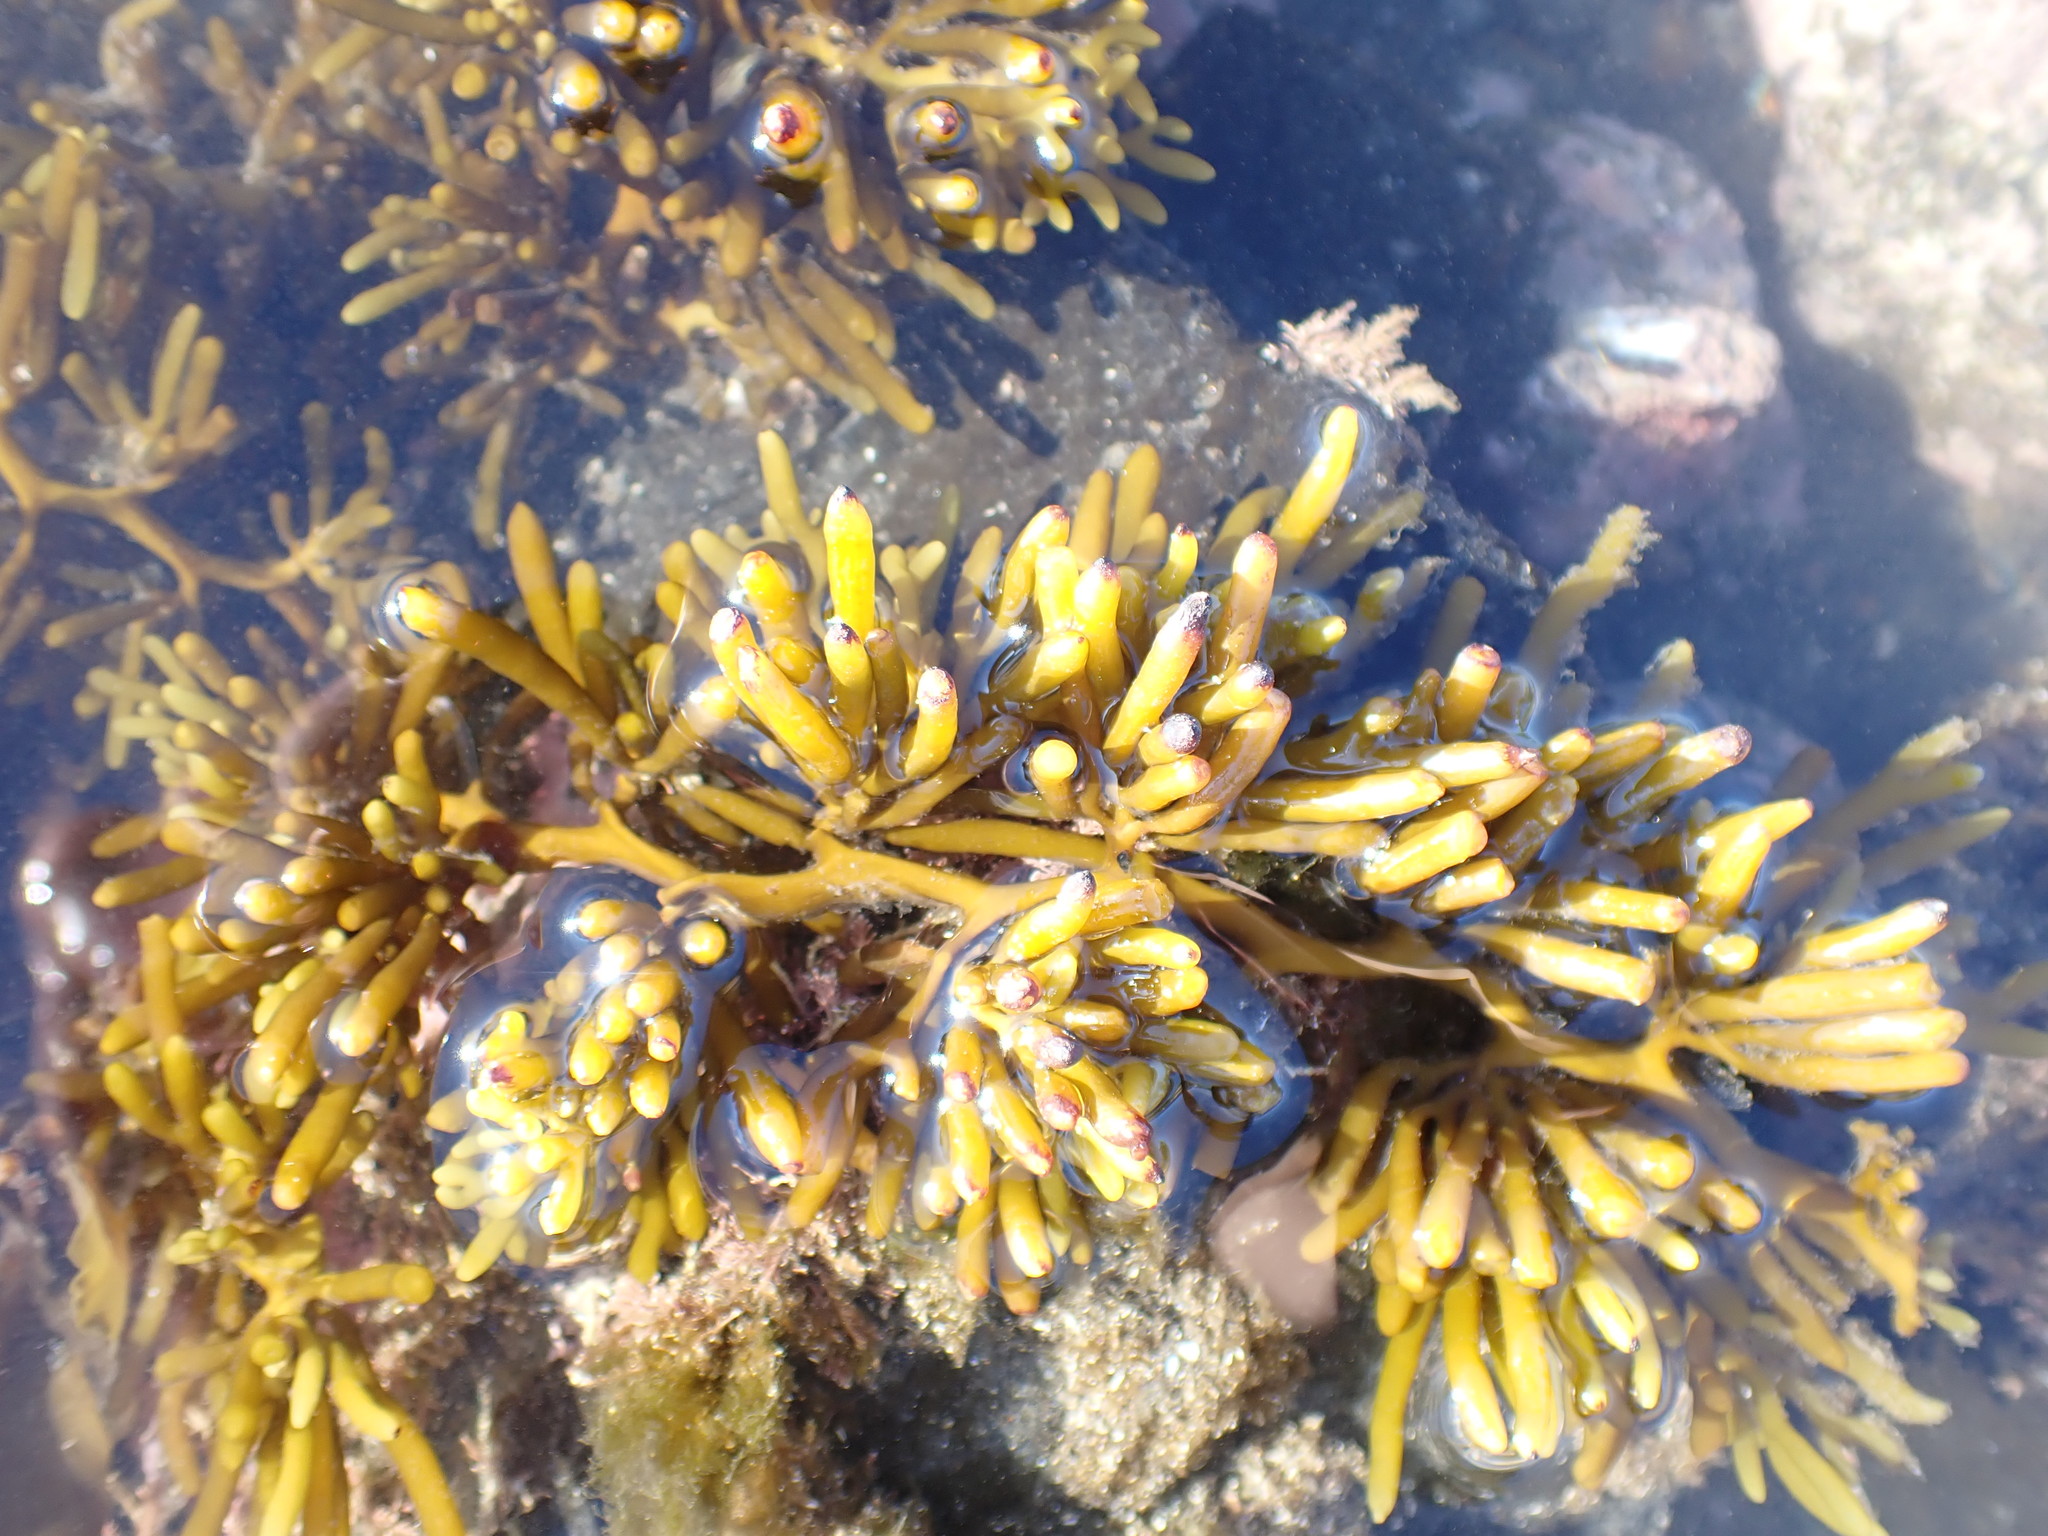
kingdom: Chromista
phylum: Ochrophyta
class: Phaeophyceae
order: Fucales
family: Sargassaceae
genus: Cystophora
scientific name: Cystophora torulosa
